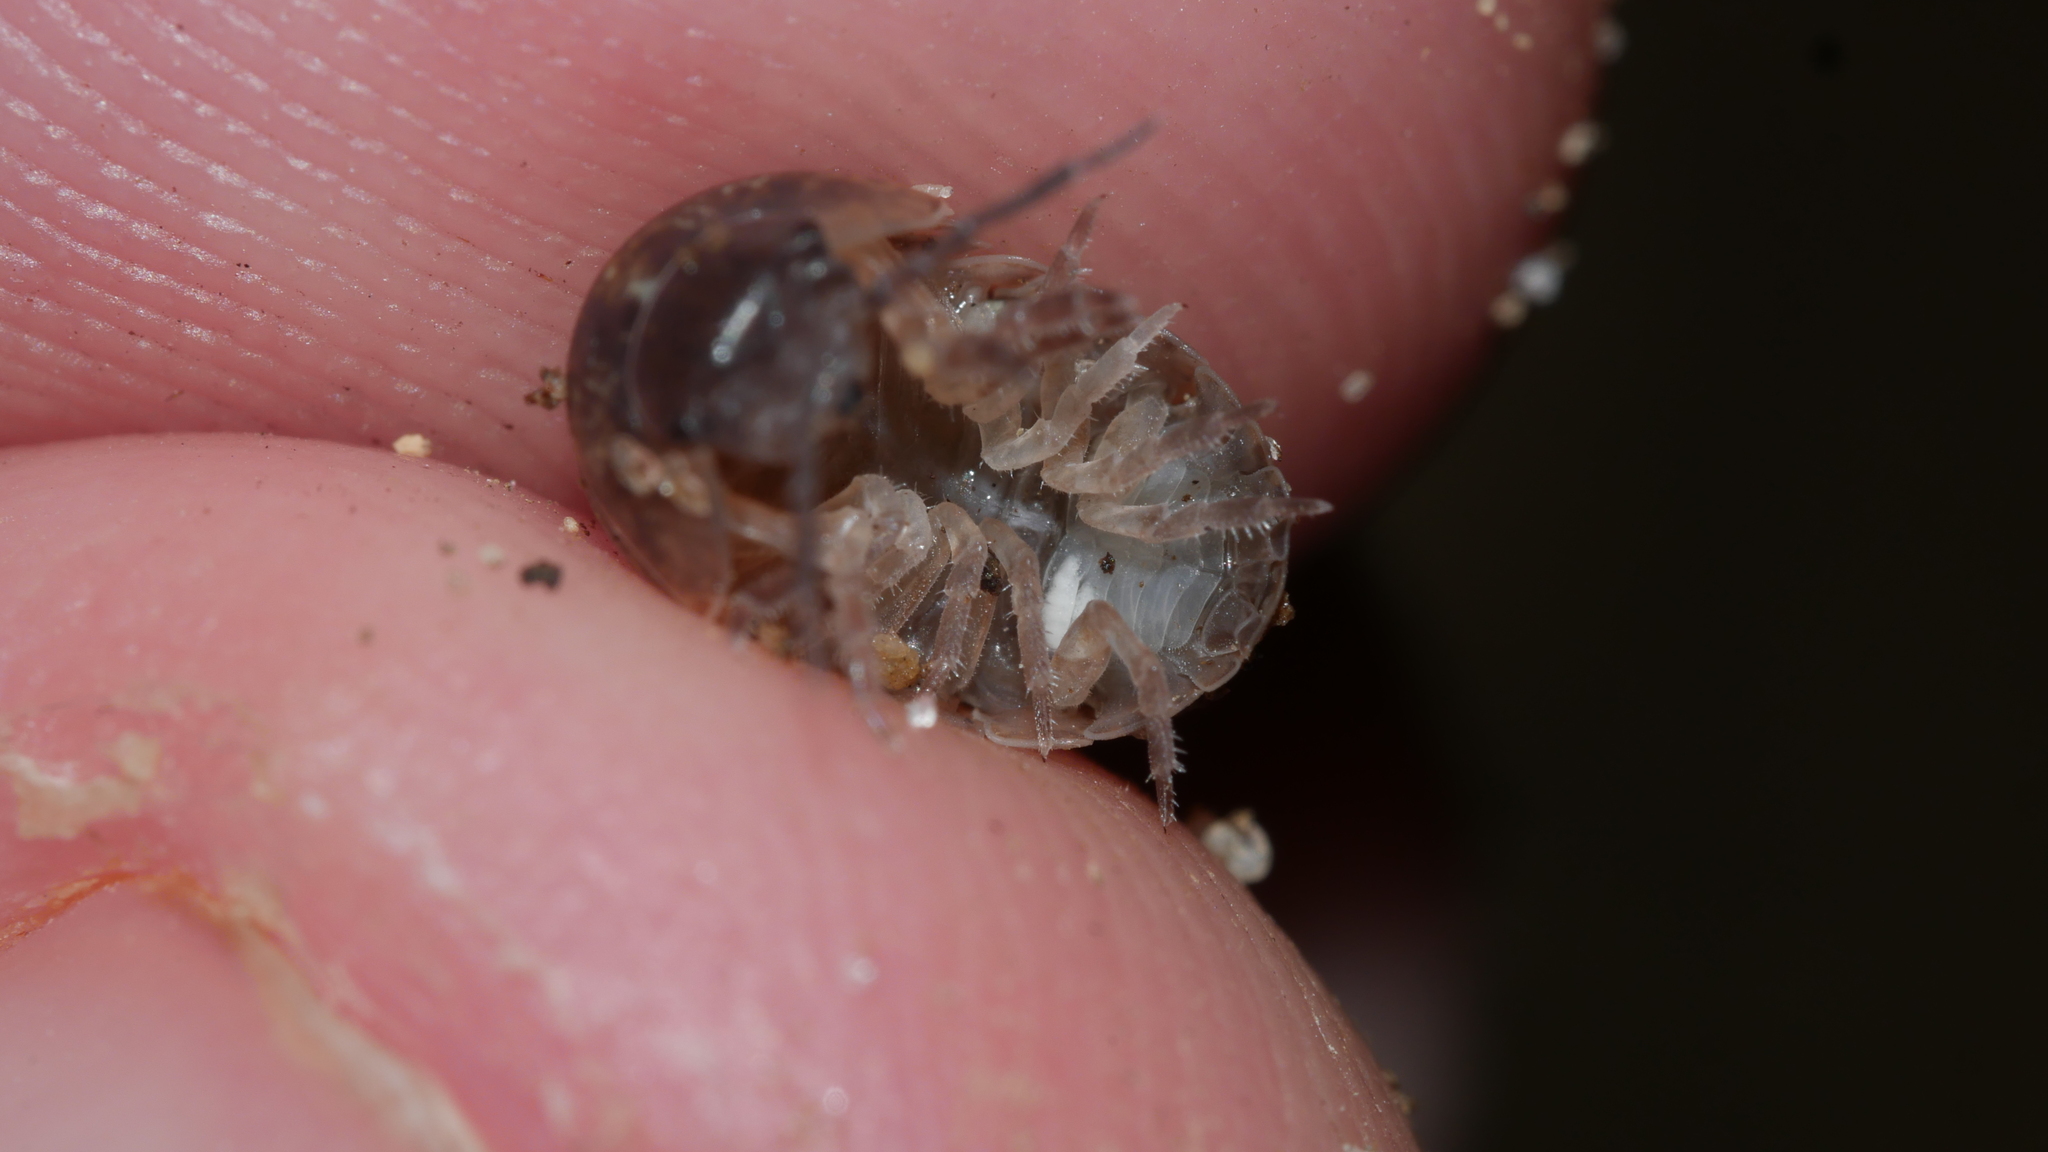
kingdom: Animalia
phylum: Arthropoda
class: Malacostraca
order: Isopoda
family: Armadillidiidae
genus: Armadillidium
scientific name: Armadillidium vulgare
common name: Common pill woodlouse
